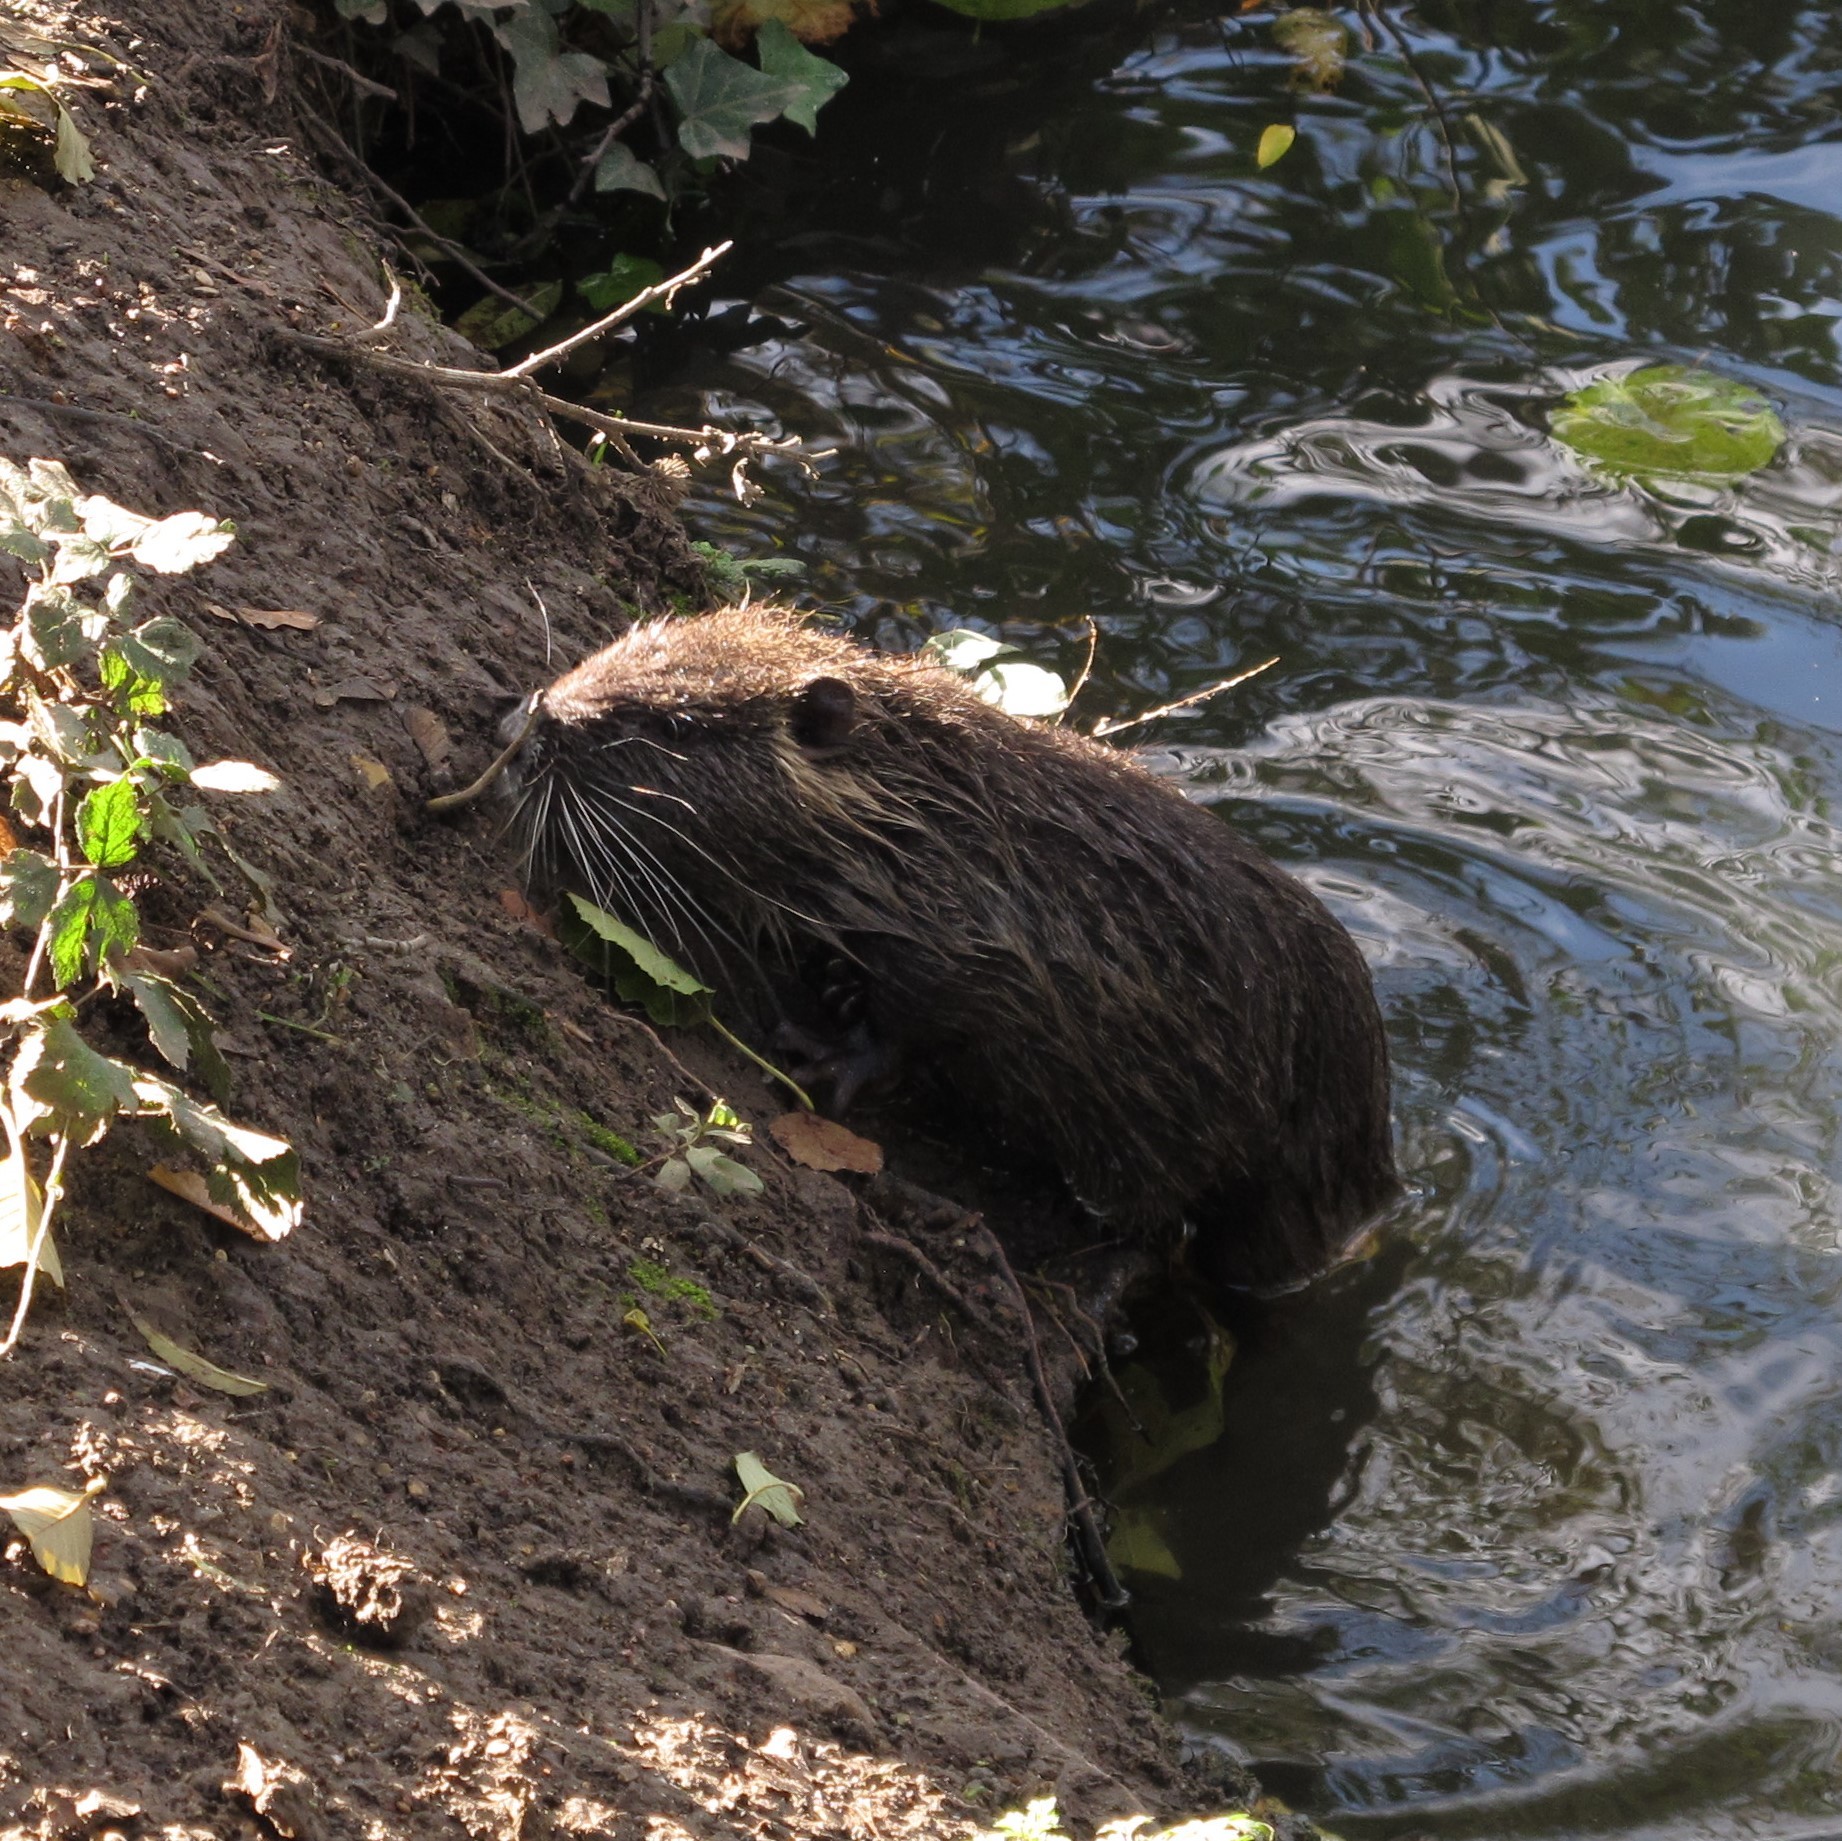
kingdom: Animalia
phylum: Chordata
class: Mammalia
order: Rodentia
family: Myocastoridae
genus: Myocastor
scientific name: Myocastor coypus
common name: Coypu
